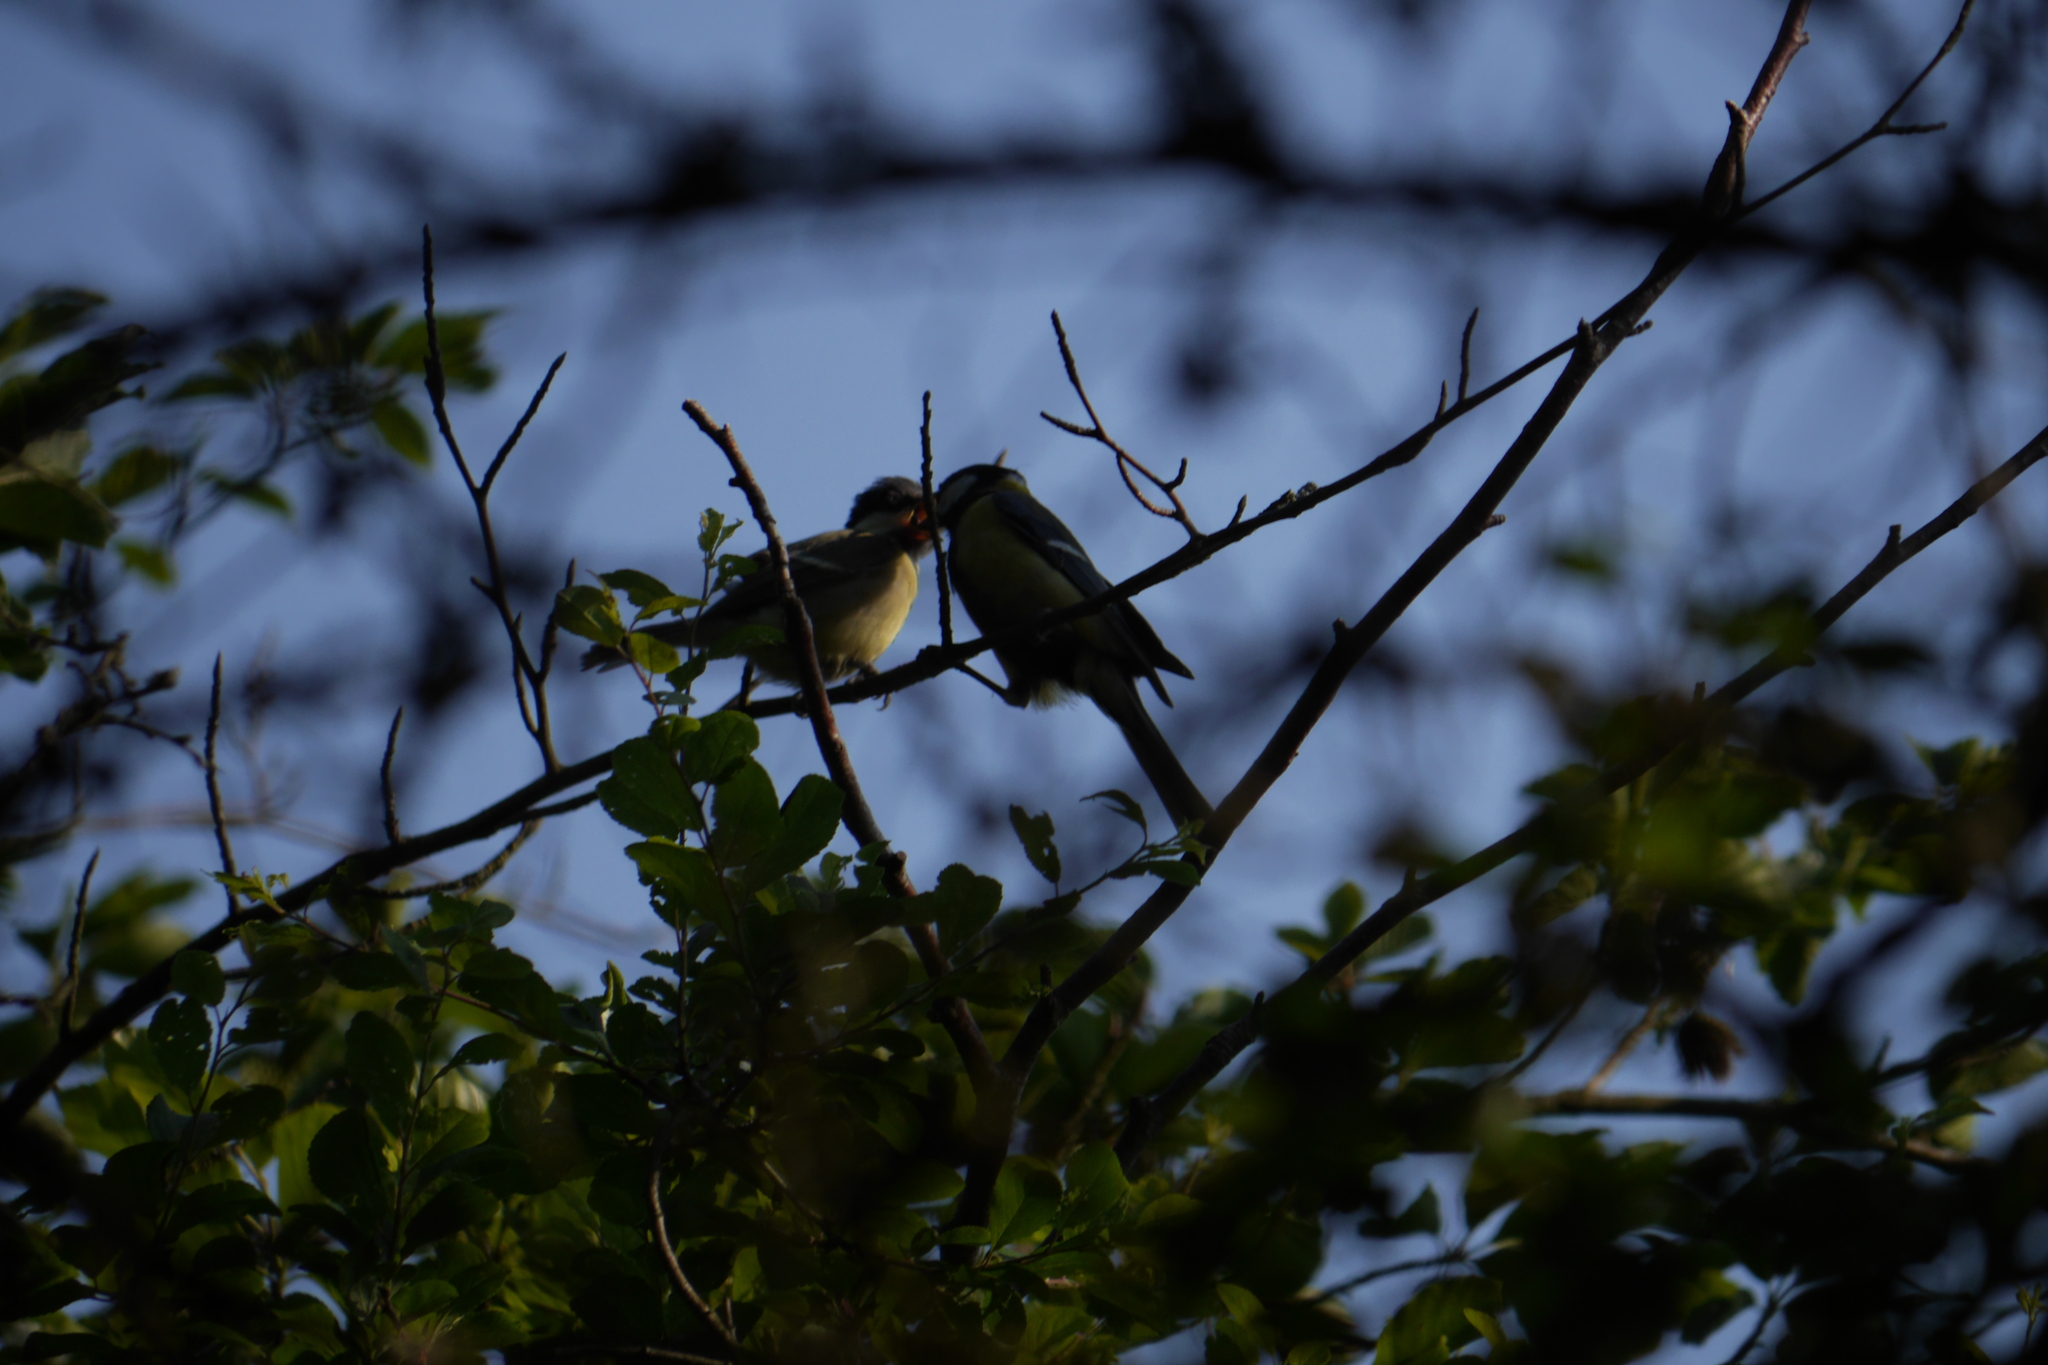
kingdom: Animalia
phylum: Chordata
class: Aves
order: Passeriformes
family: Paridae
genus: Parus
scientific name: Parus major
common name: Great tit
